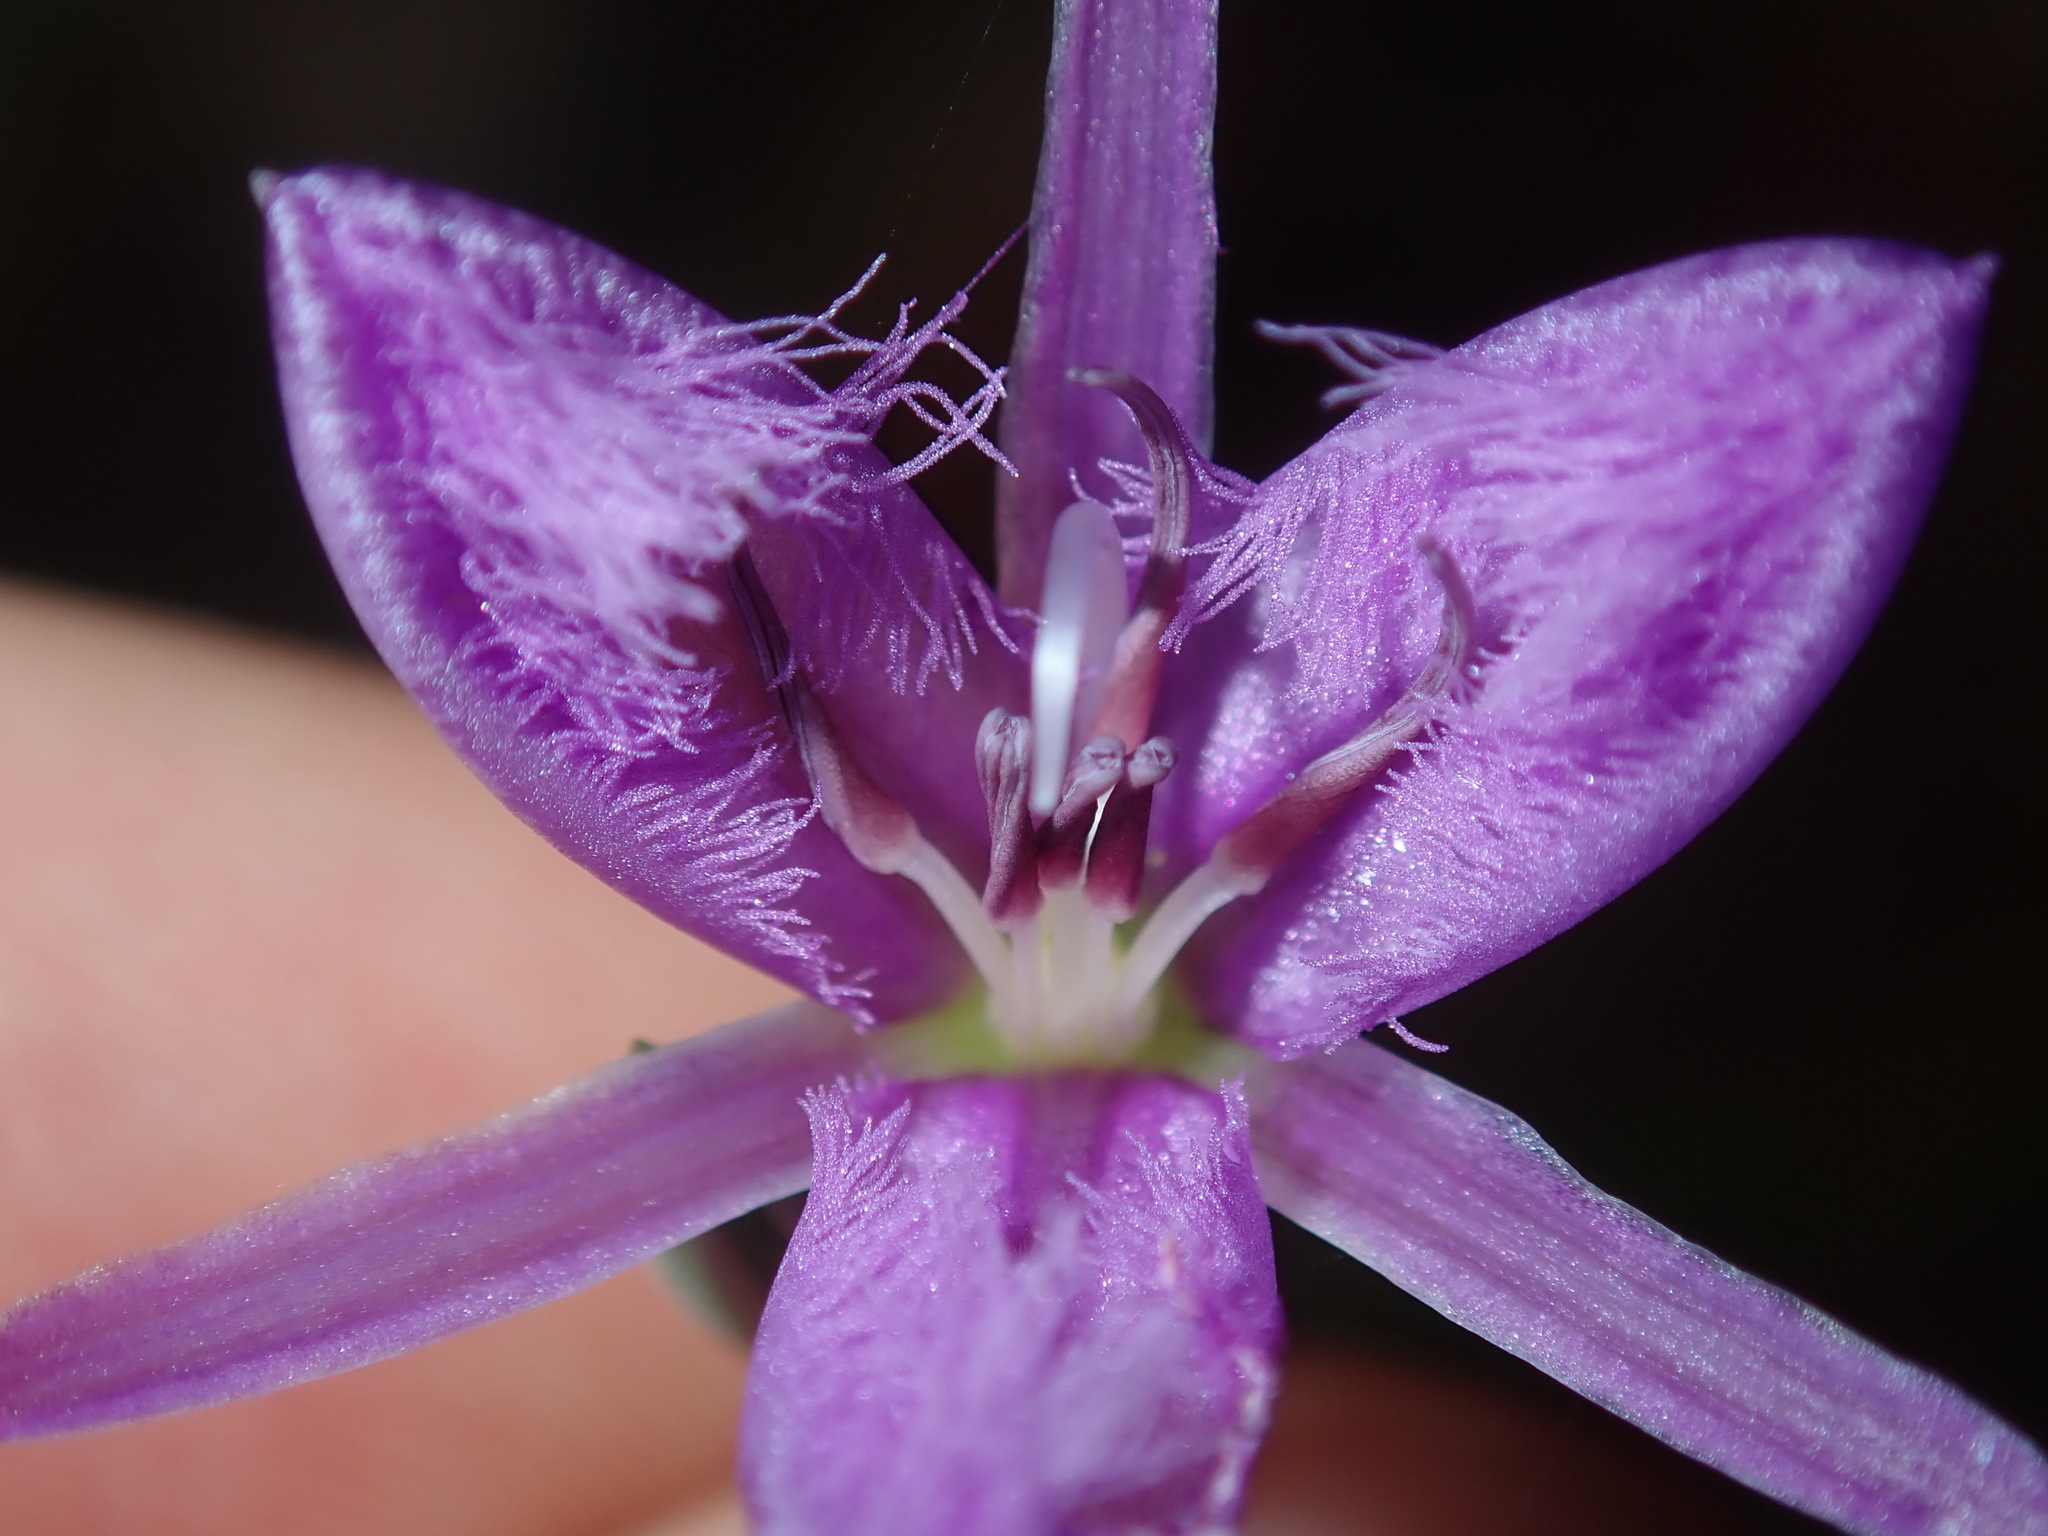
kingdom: Plantae
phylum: Tracheophyta
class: Liliopsida
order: Asparagales
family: Asparagaceae
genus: Thysanotus
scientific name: Thysanotus tuberosus
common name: Common fringed-lily
